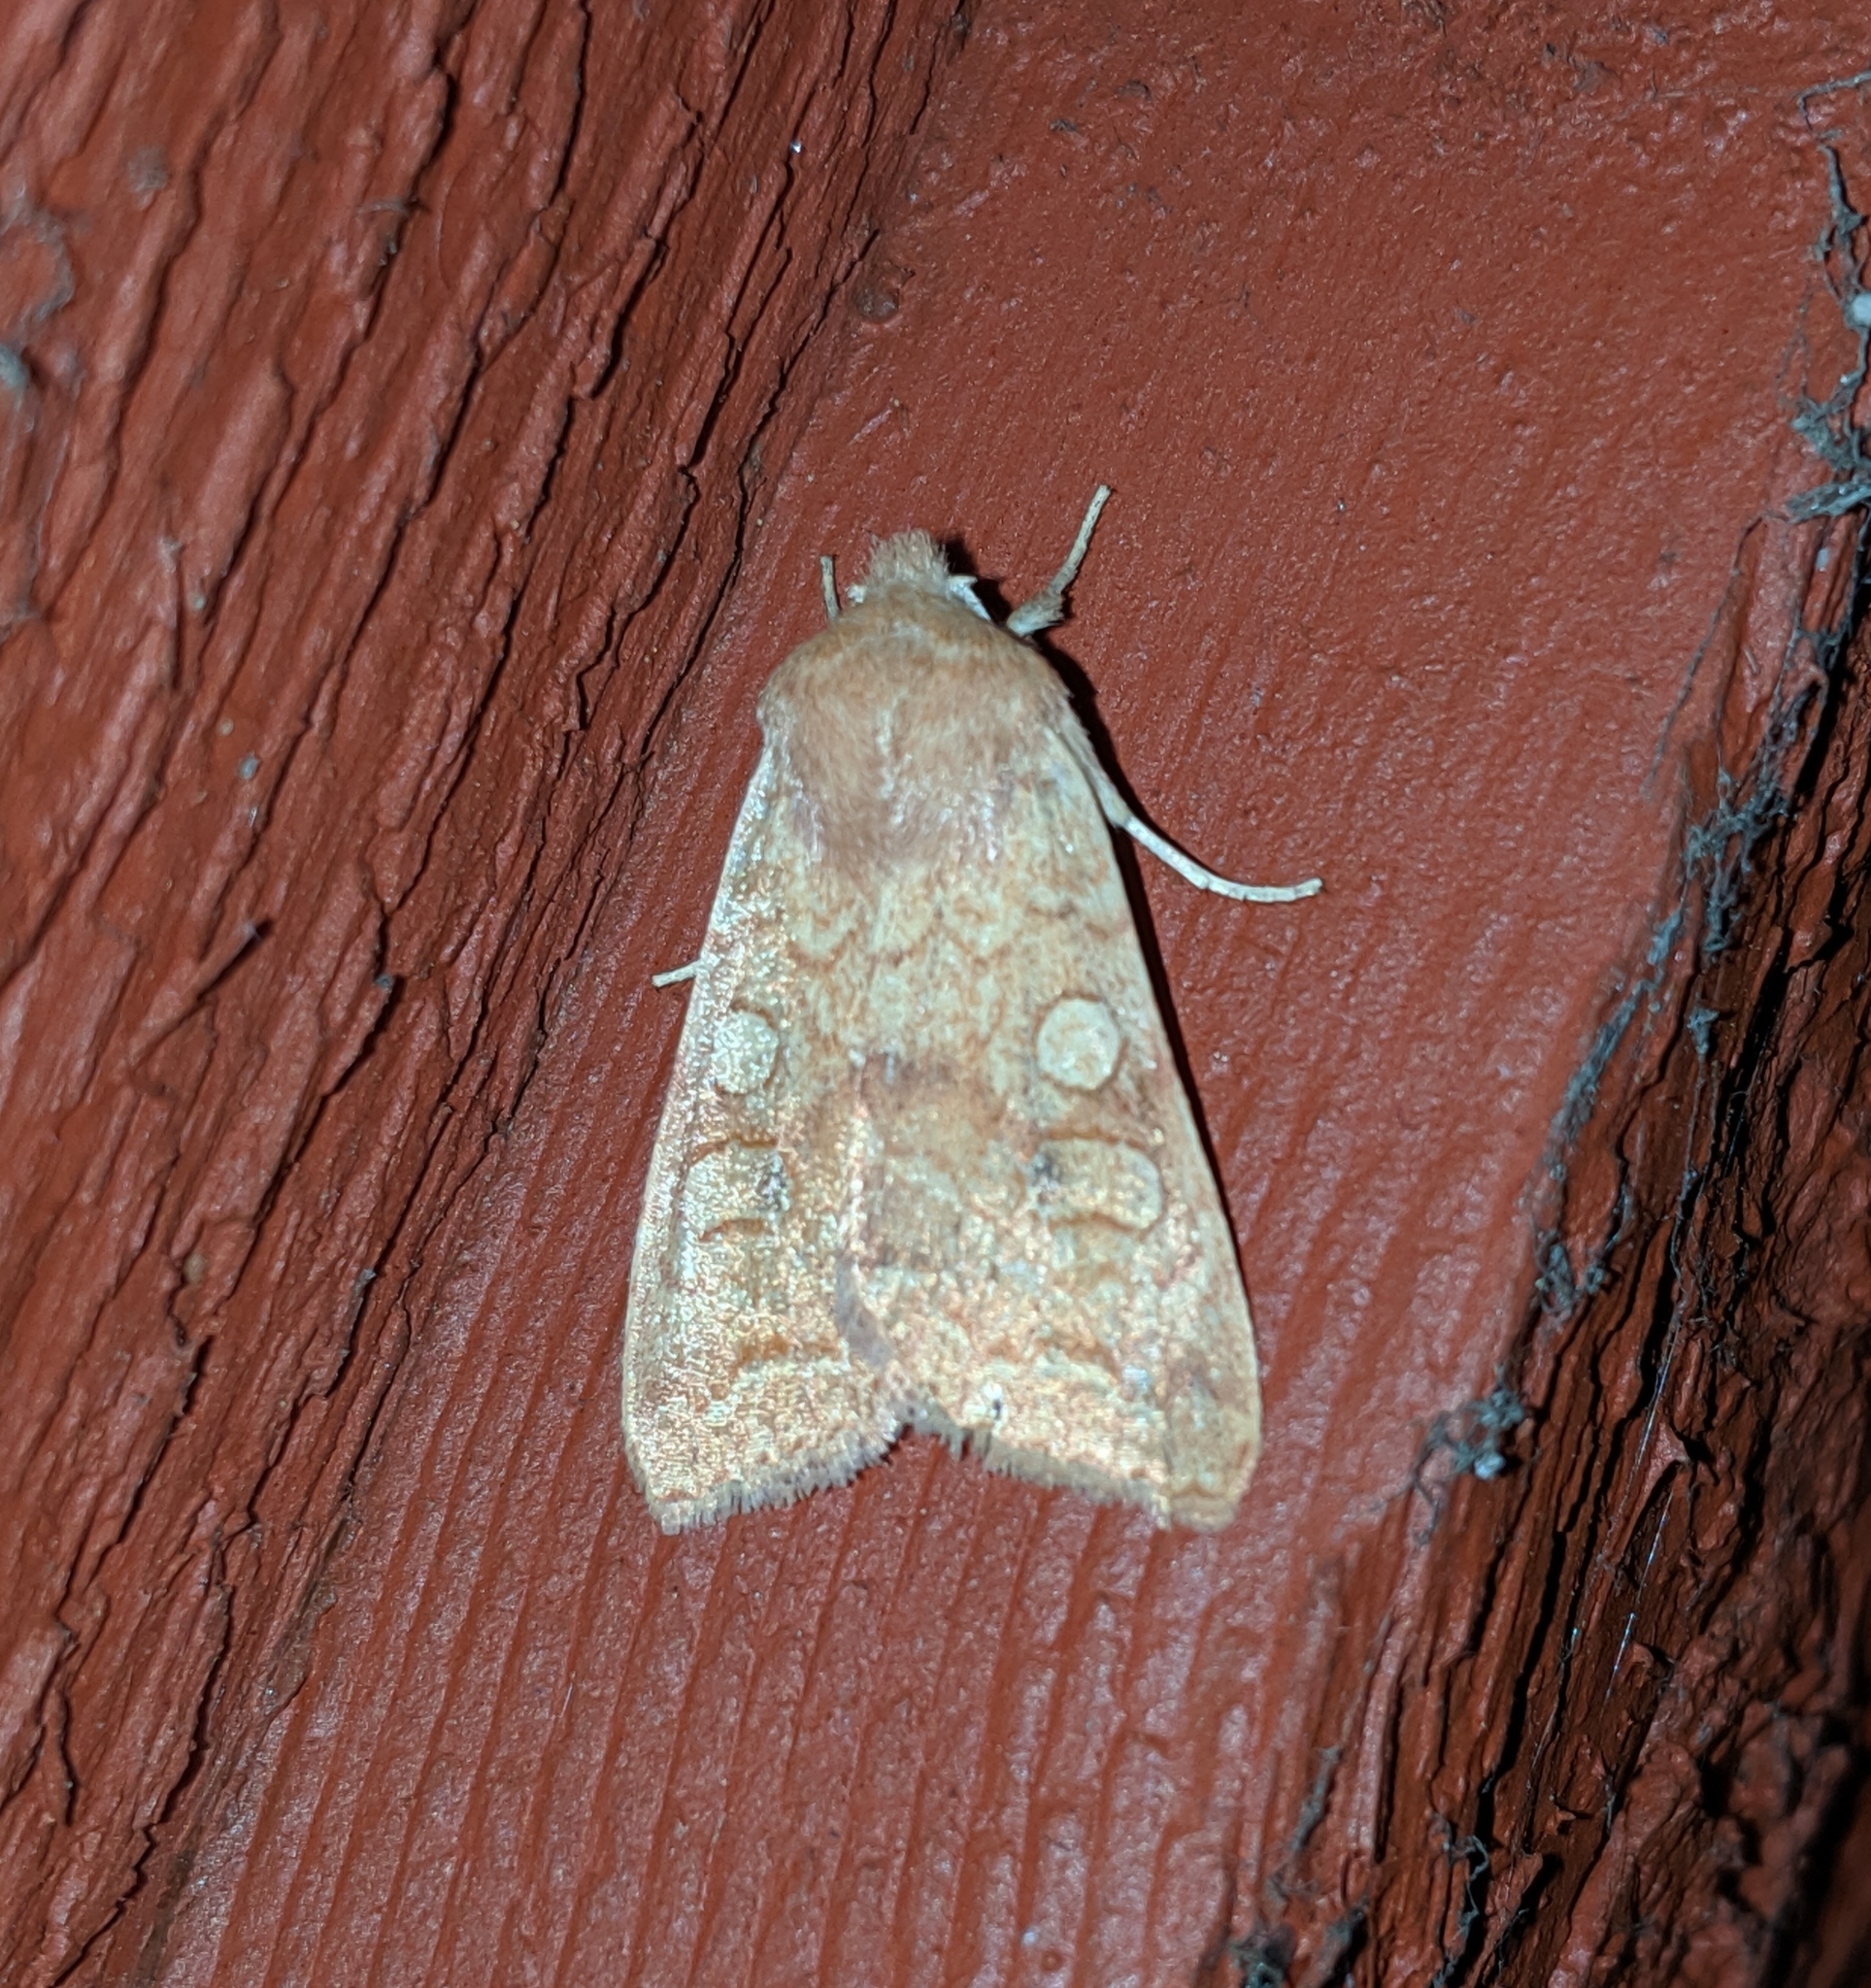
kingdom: Animalia
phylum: Arthropoda
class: Insecta
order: Lepidoptera
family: Noctuidae
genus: Agrochola
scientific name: Agrochola decipiens
